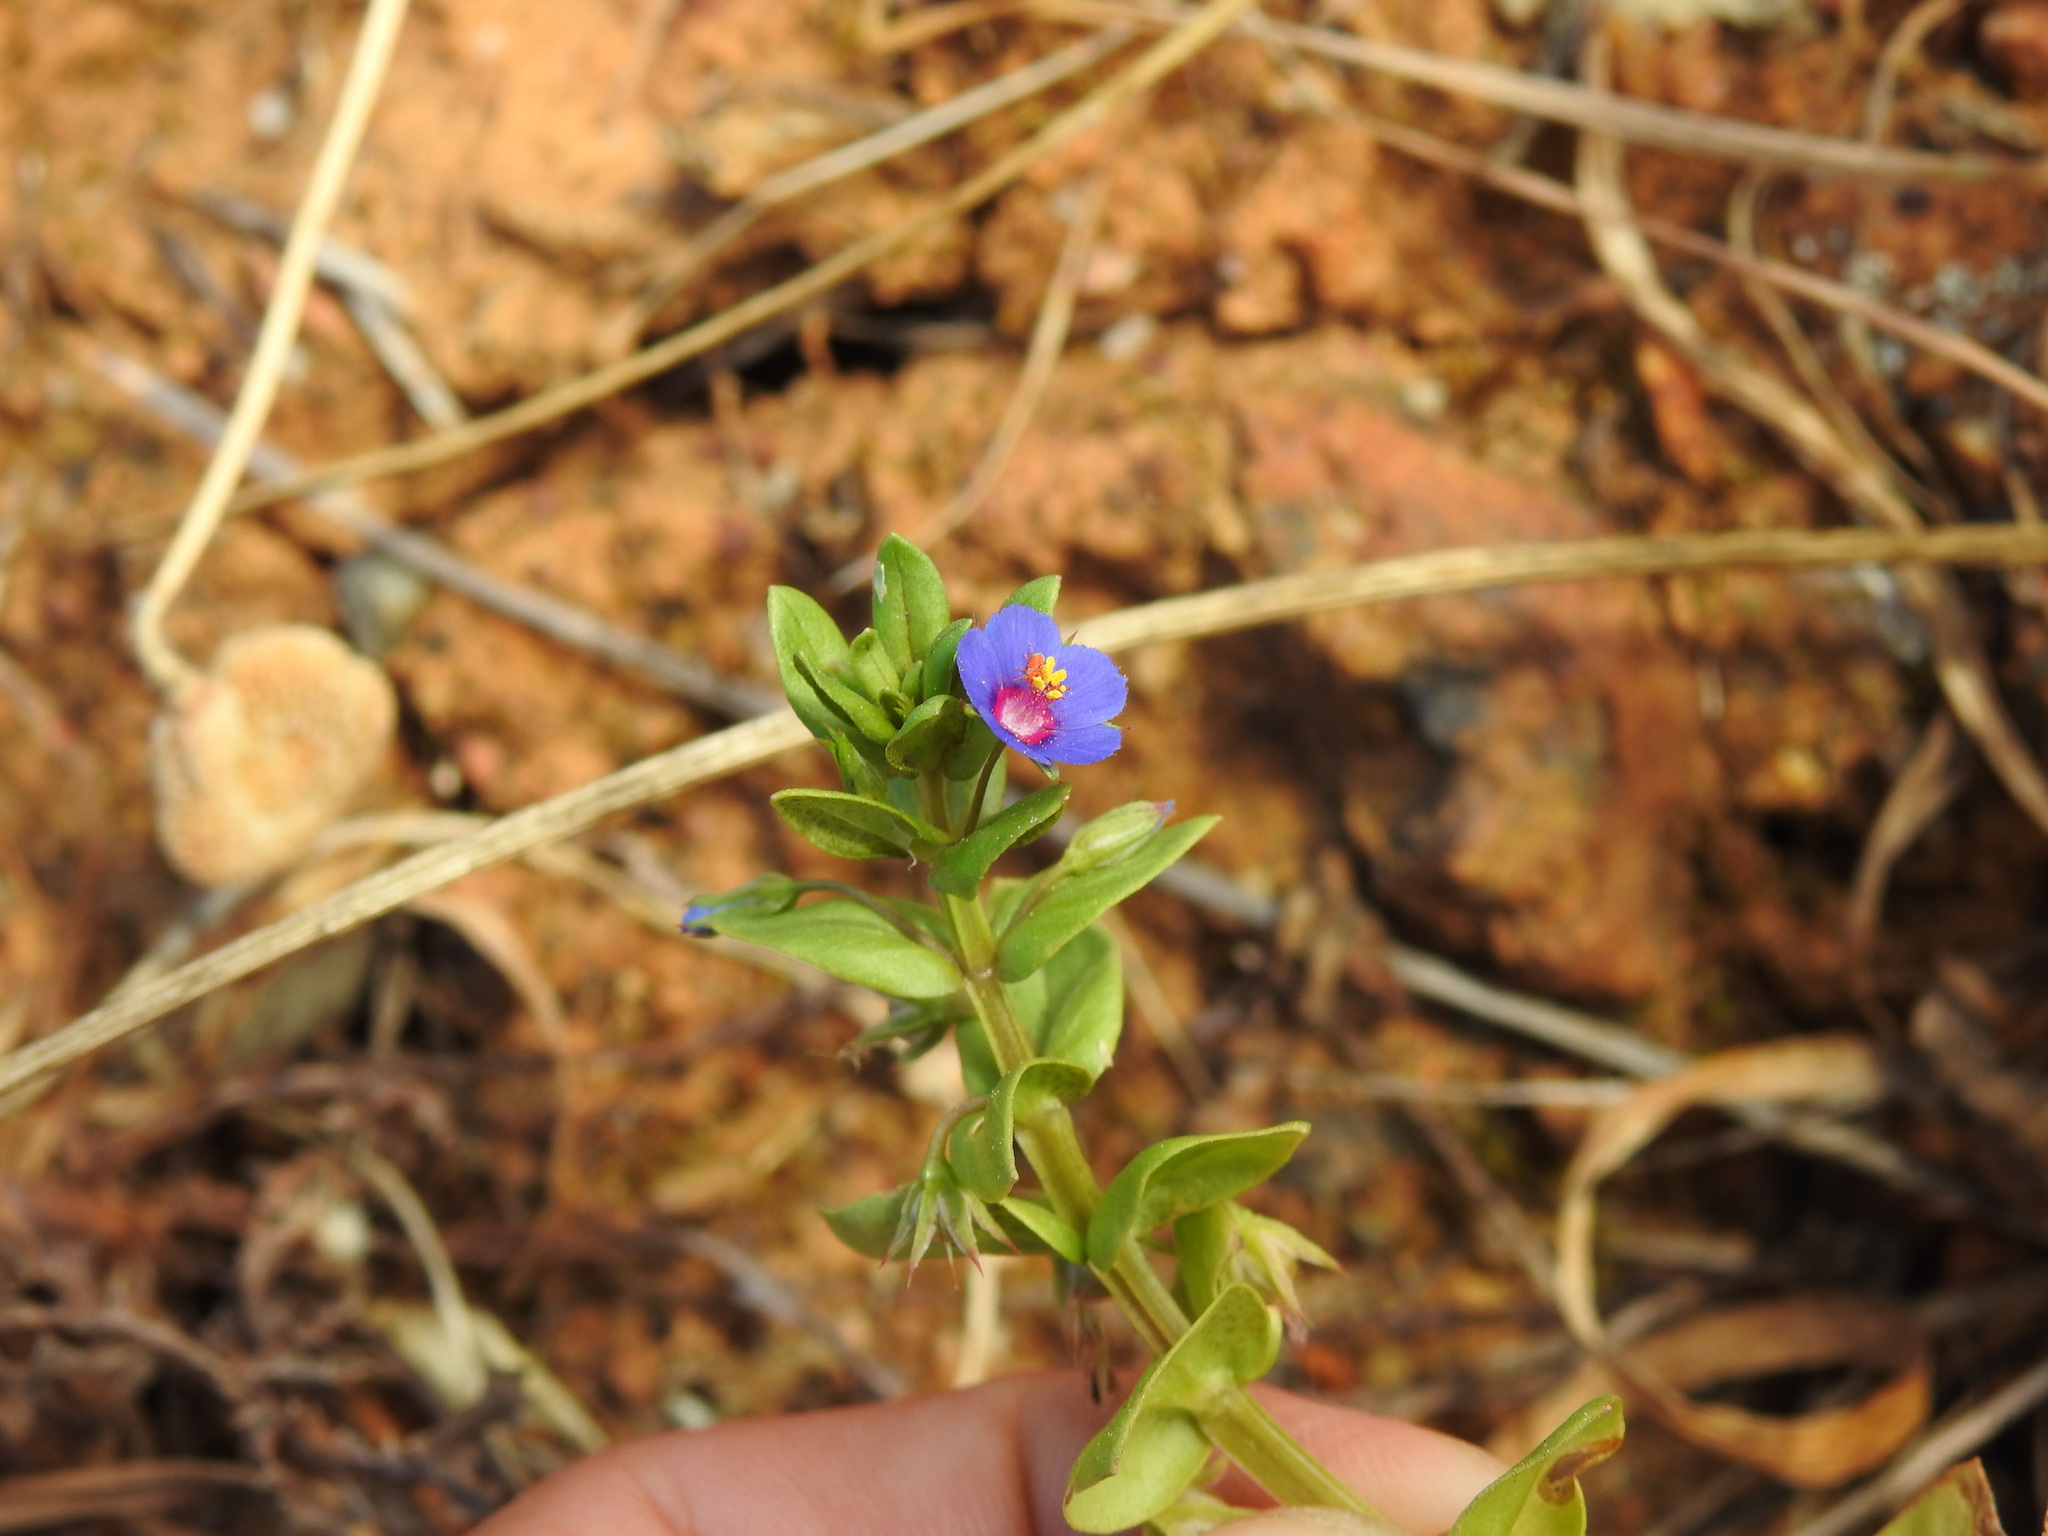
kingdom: Plantae
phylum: Tracheophyta
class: Magnoliopsida
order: Ericales
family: Primulaceae
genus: Lysimachia
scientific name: Lysimachia loeflingii
